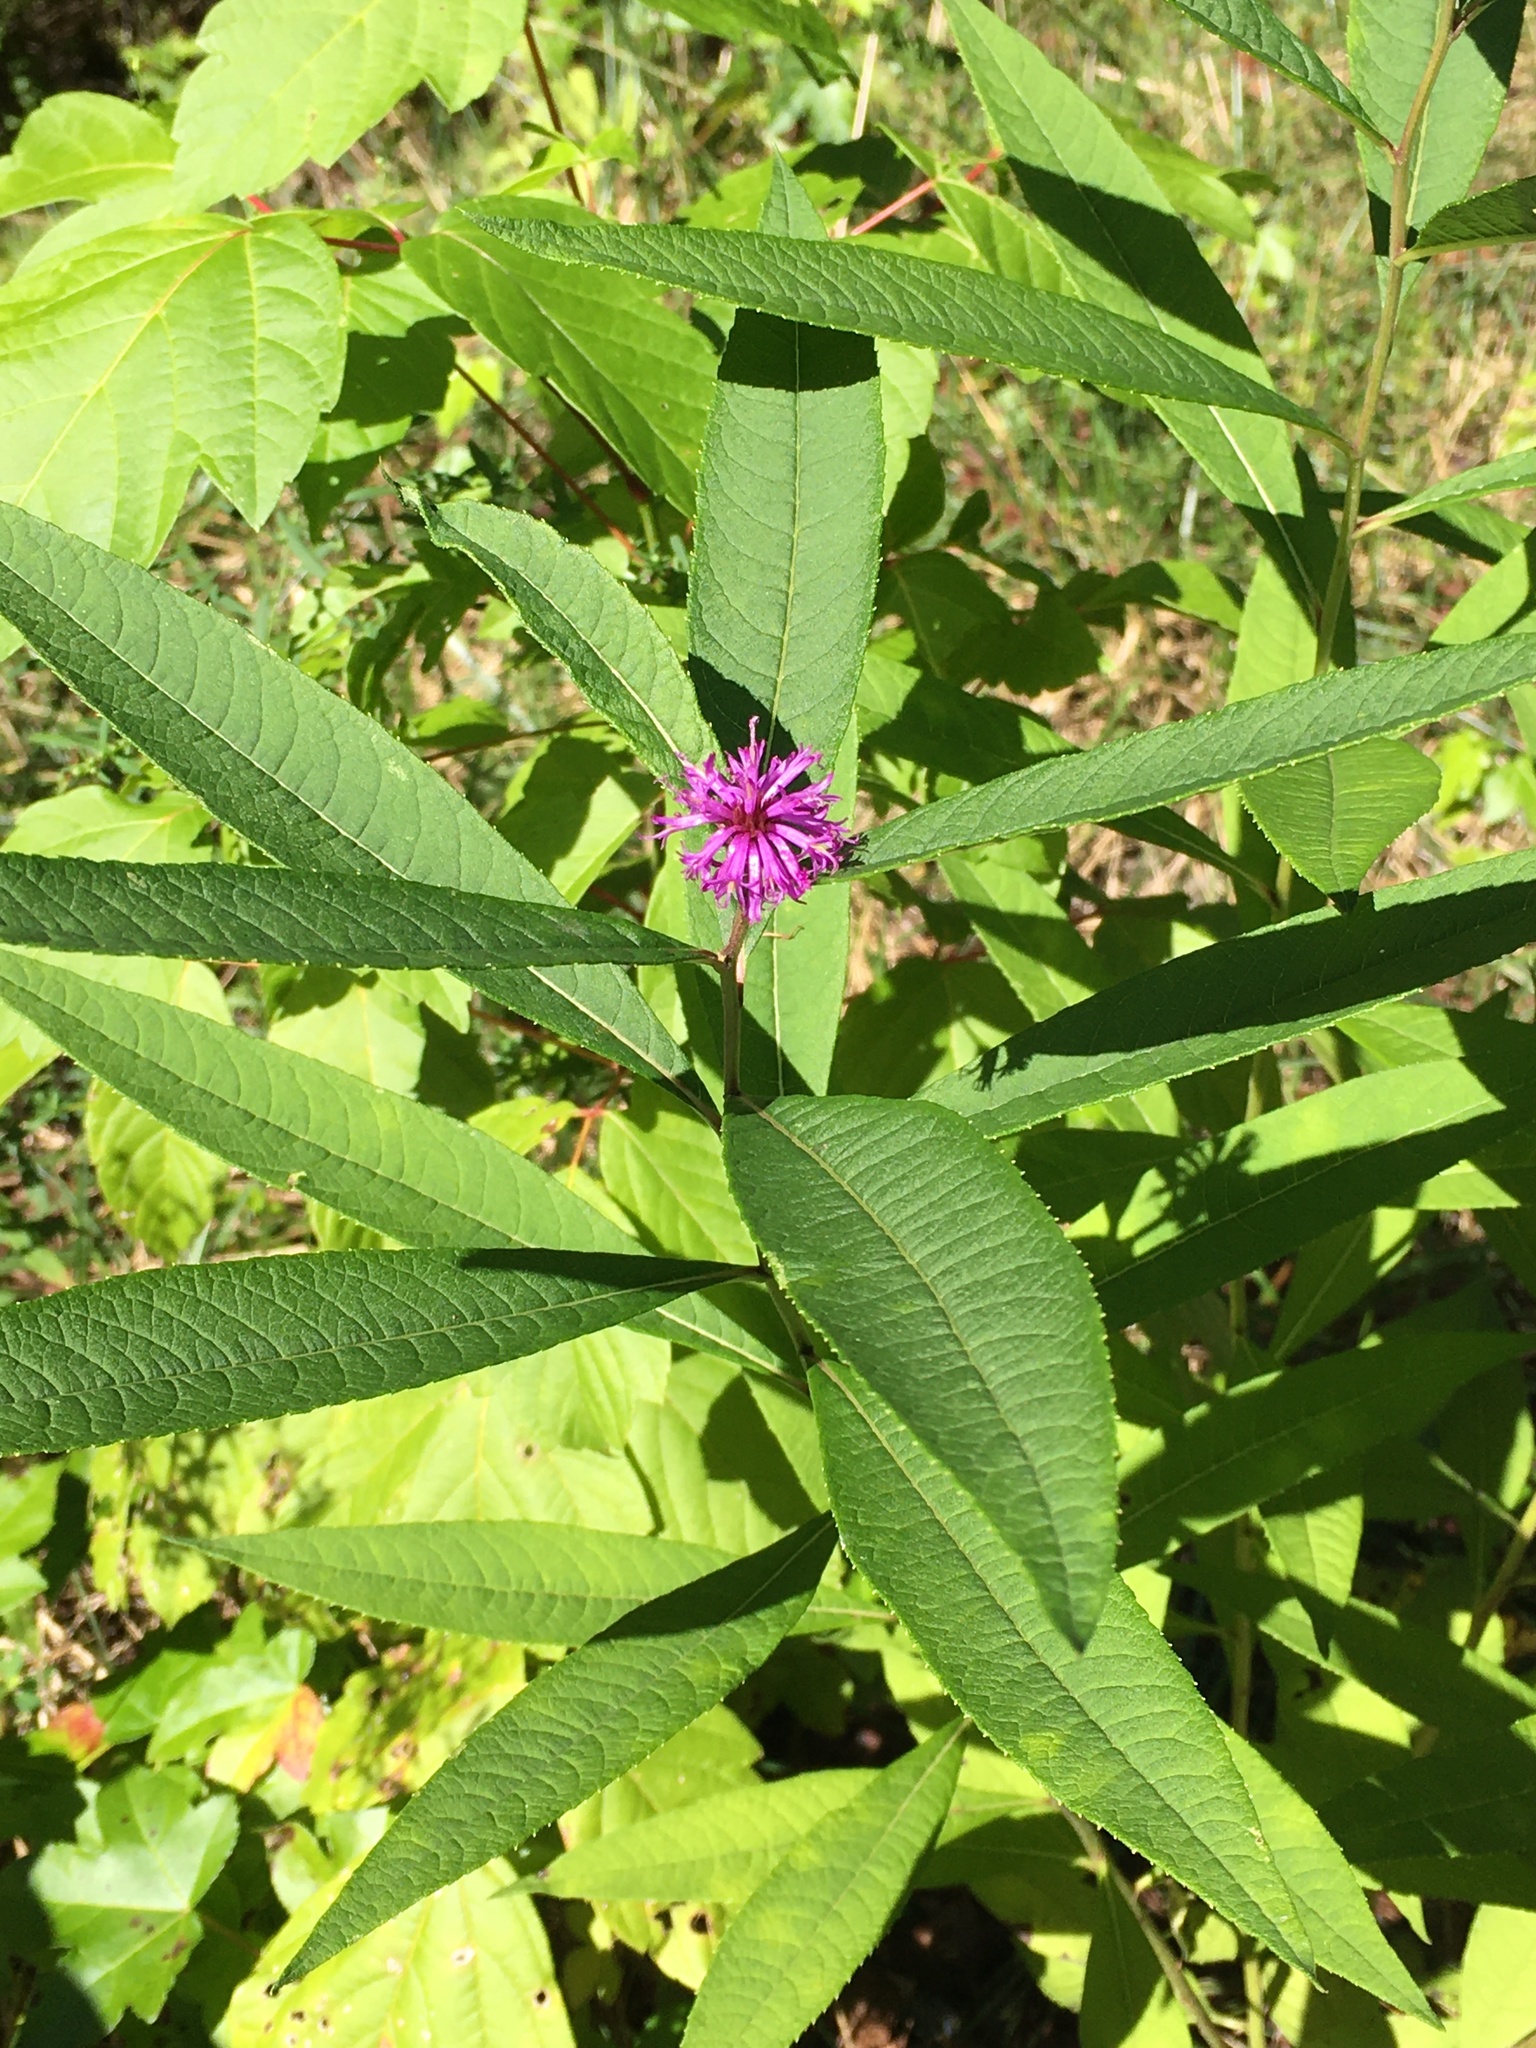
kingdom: Plantae
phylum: Tracheophyta
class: Magnoliopsida
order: Asterales
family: Asteraceae
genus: Vernonia
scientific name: Vernonia noveboracensis
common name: New york ironweed
